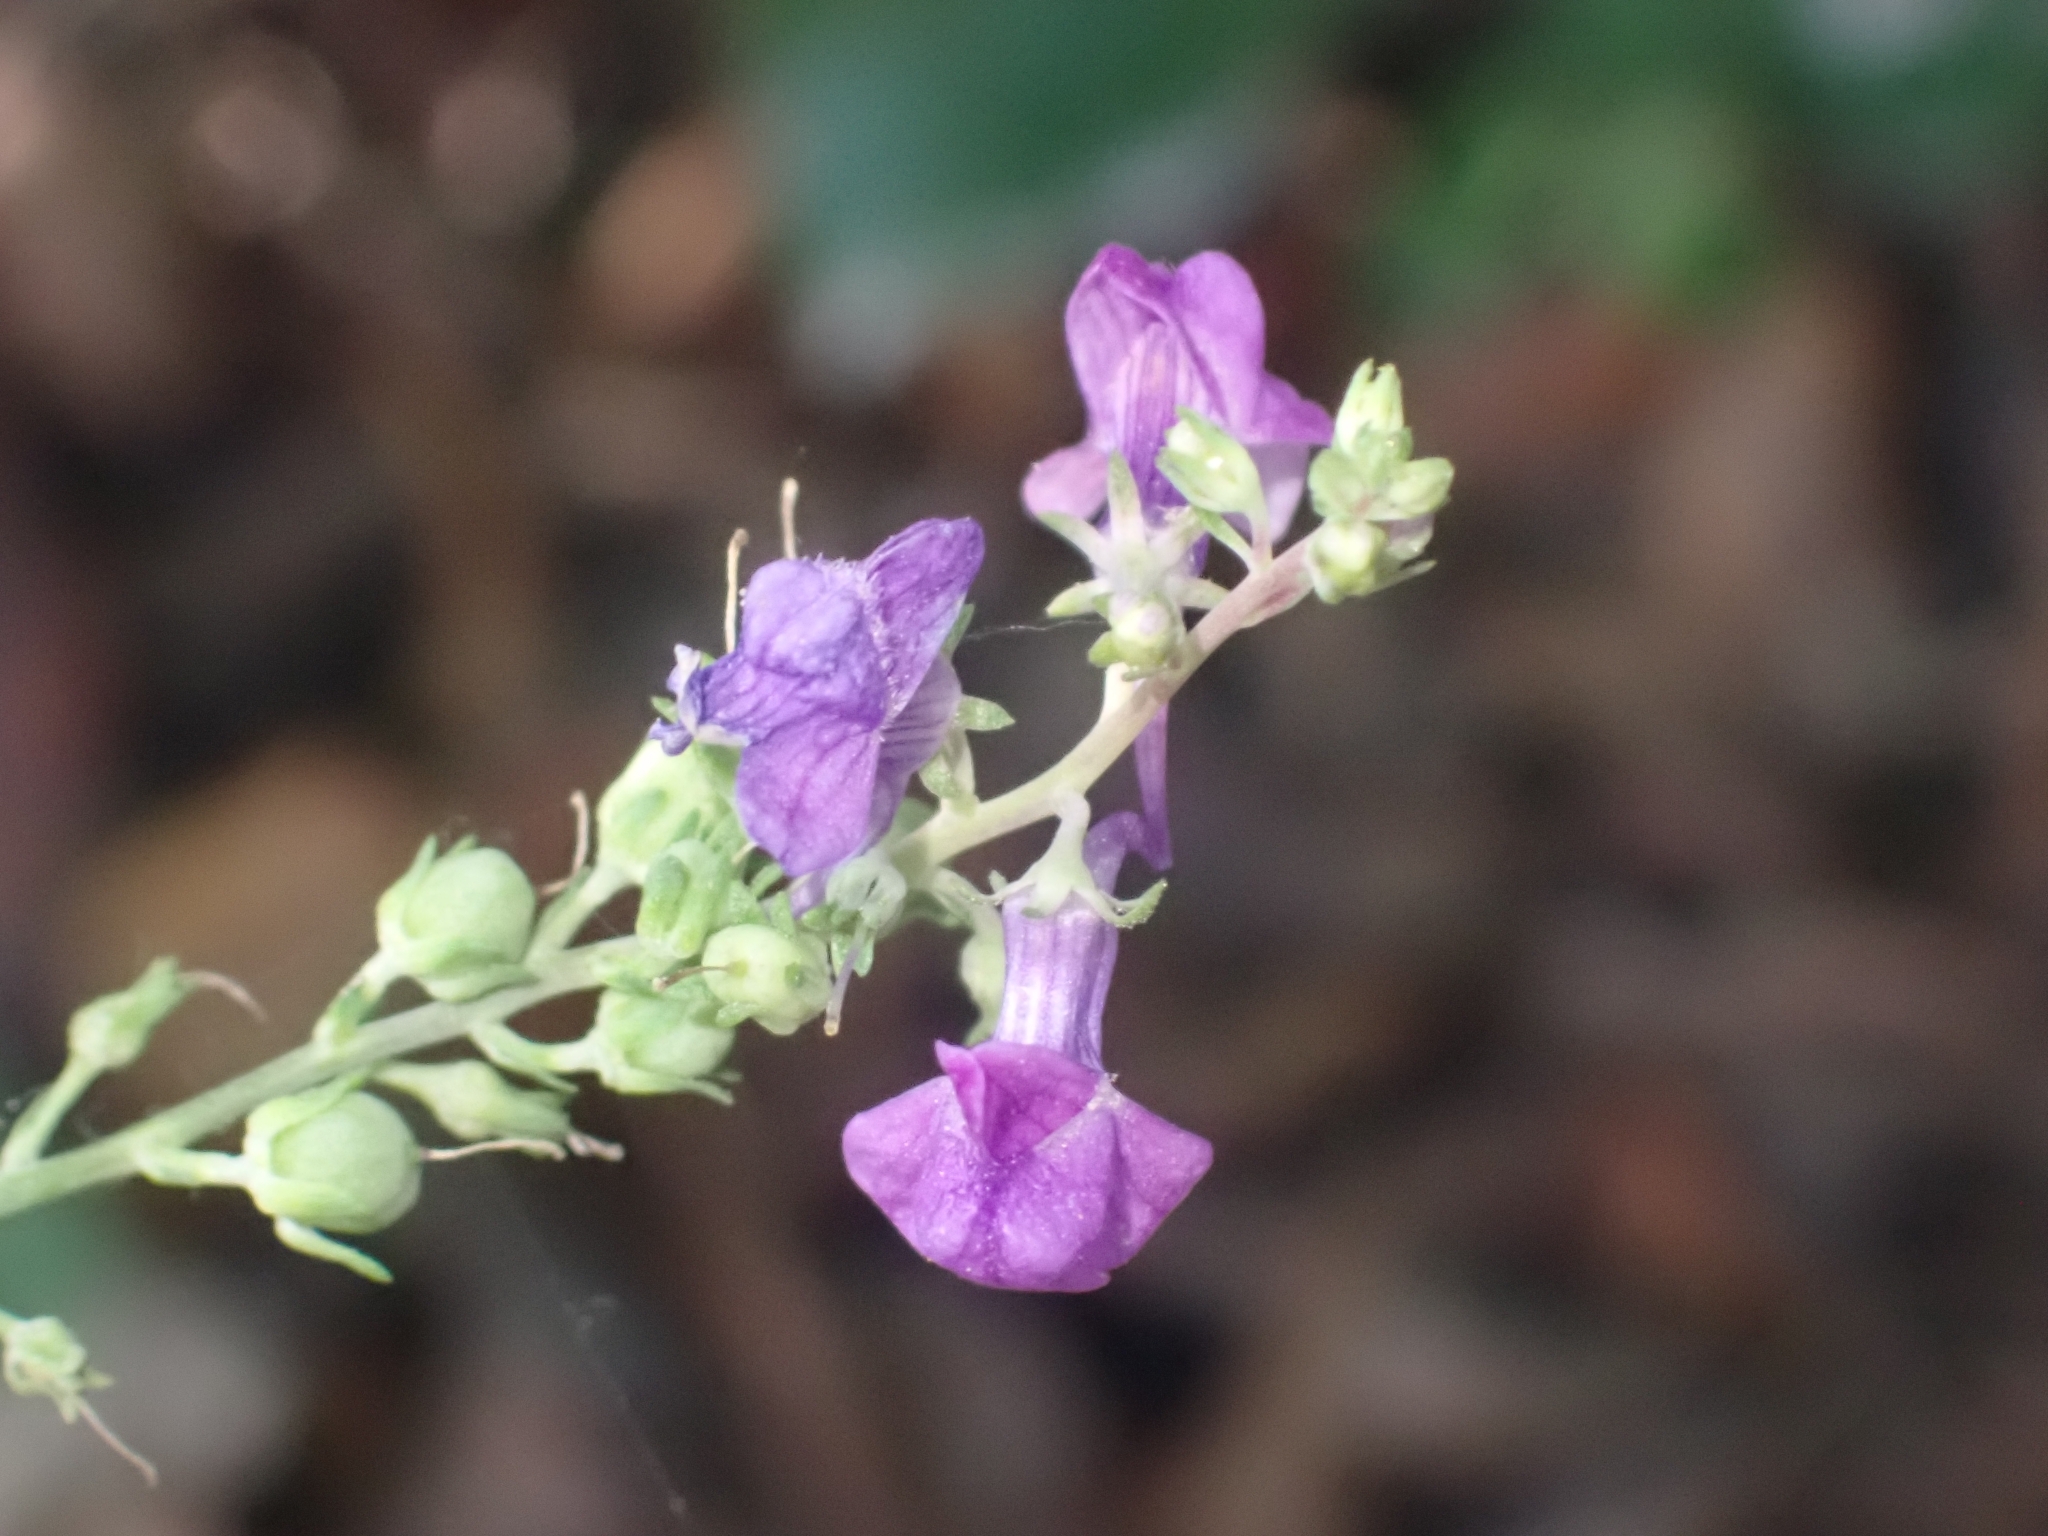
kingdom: Plantae
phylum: Tracheophyta
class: Magnoliopsida
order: Lamiales
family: Plantaginaceae
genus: Linaria
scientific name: Linaria purpurea
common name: Purple toadflax
